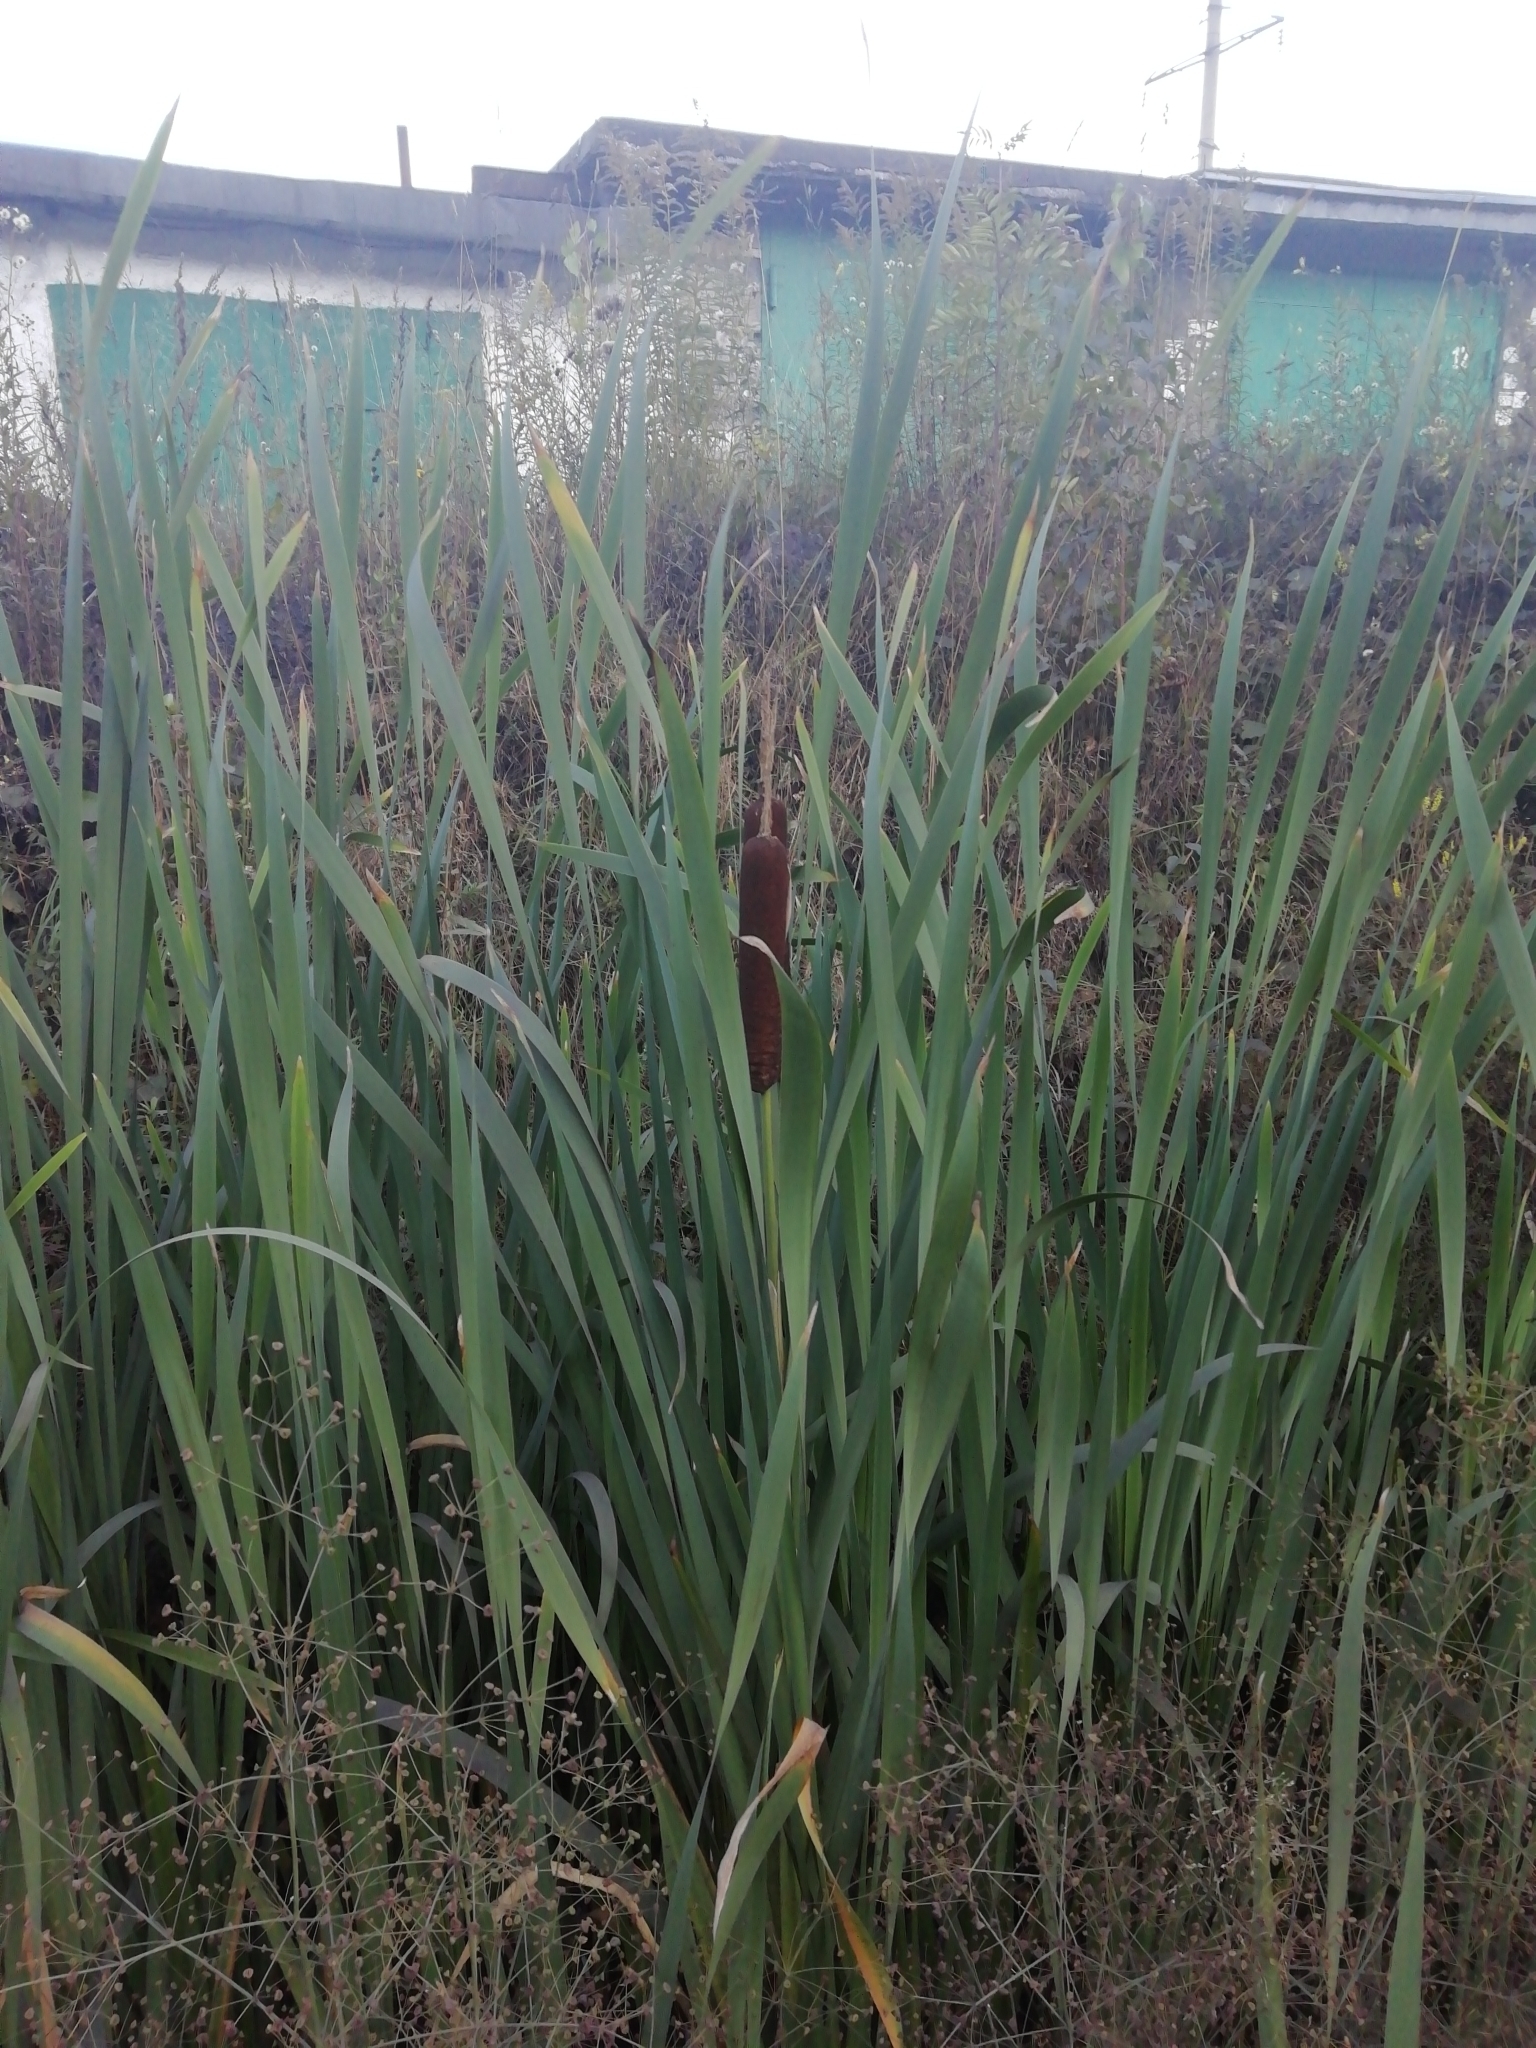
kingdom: Plantae
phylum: Tracheophyta
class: Liliopsida
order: Poales
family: Typhaceae
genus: Typha
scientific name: Typha latifolia
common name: Broadleaf cattail
